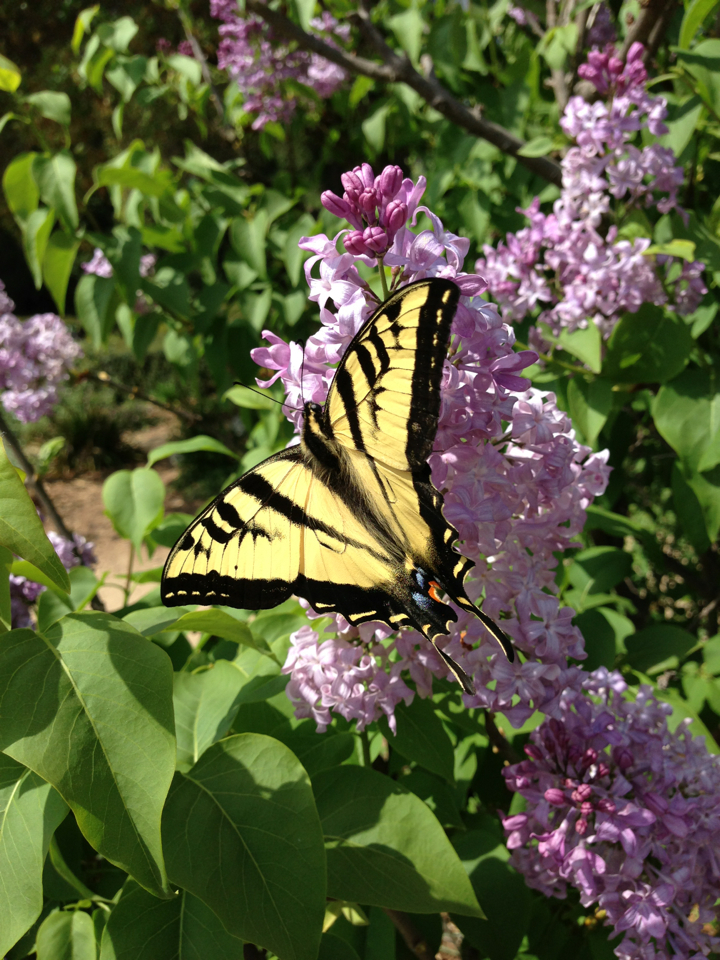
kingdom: Animalia
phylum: Arthropoda
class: Insecta
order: Lepidoptera
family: Papilionidae
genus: Papilio
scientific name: Papilio rutulus
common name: Western tiger swallowtail
